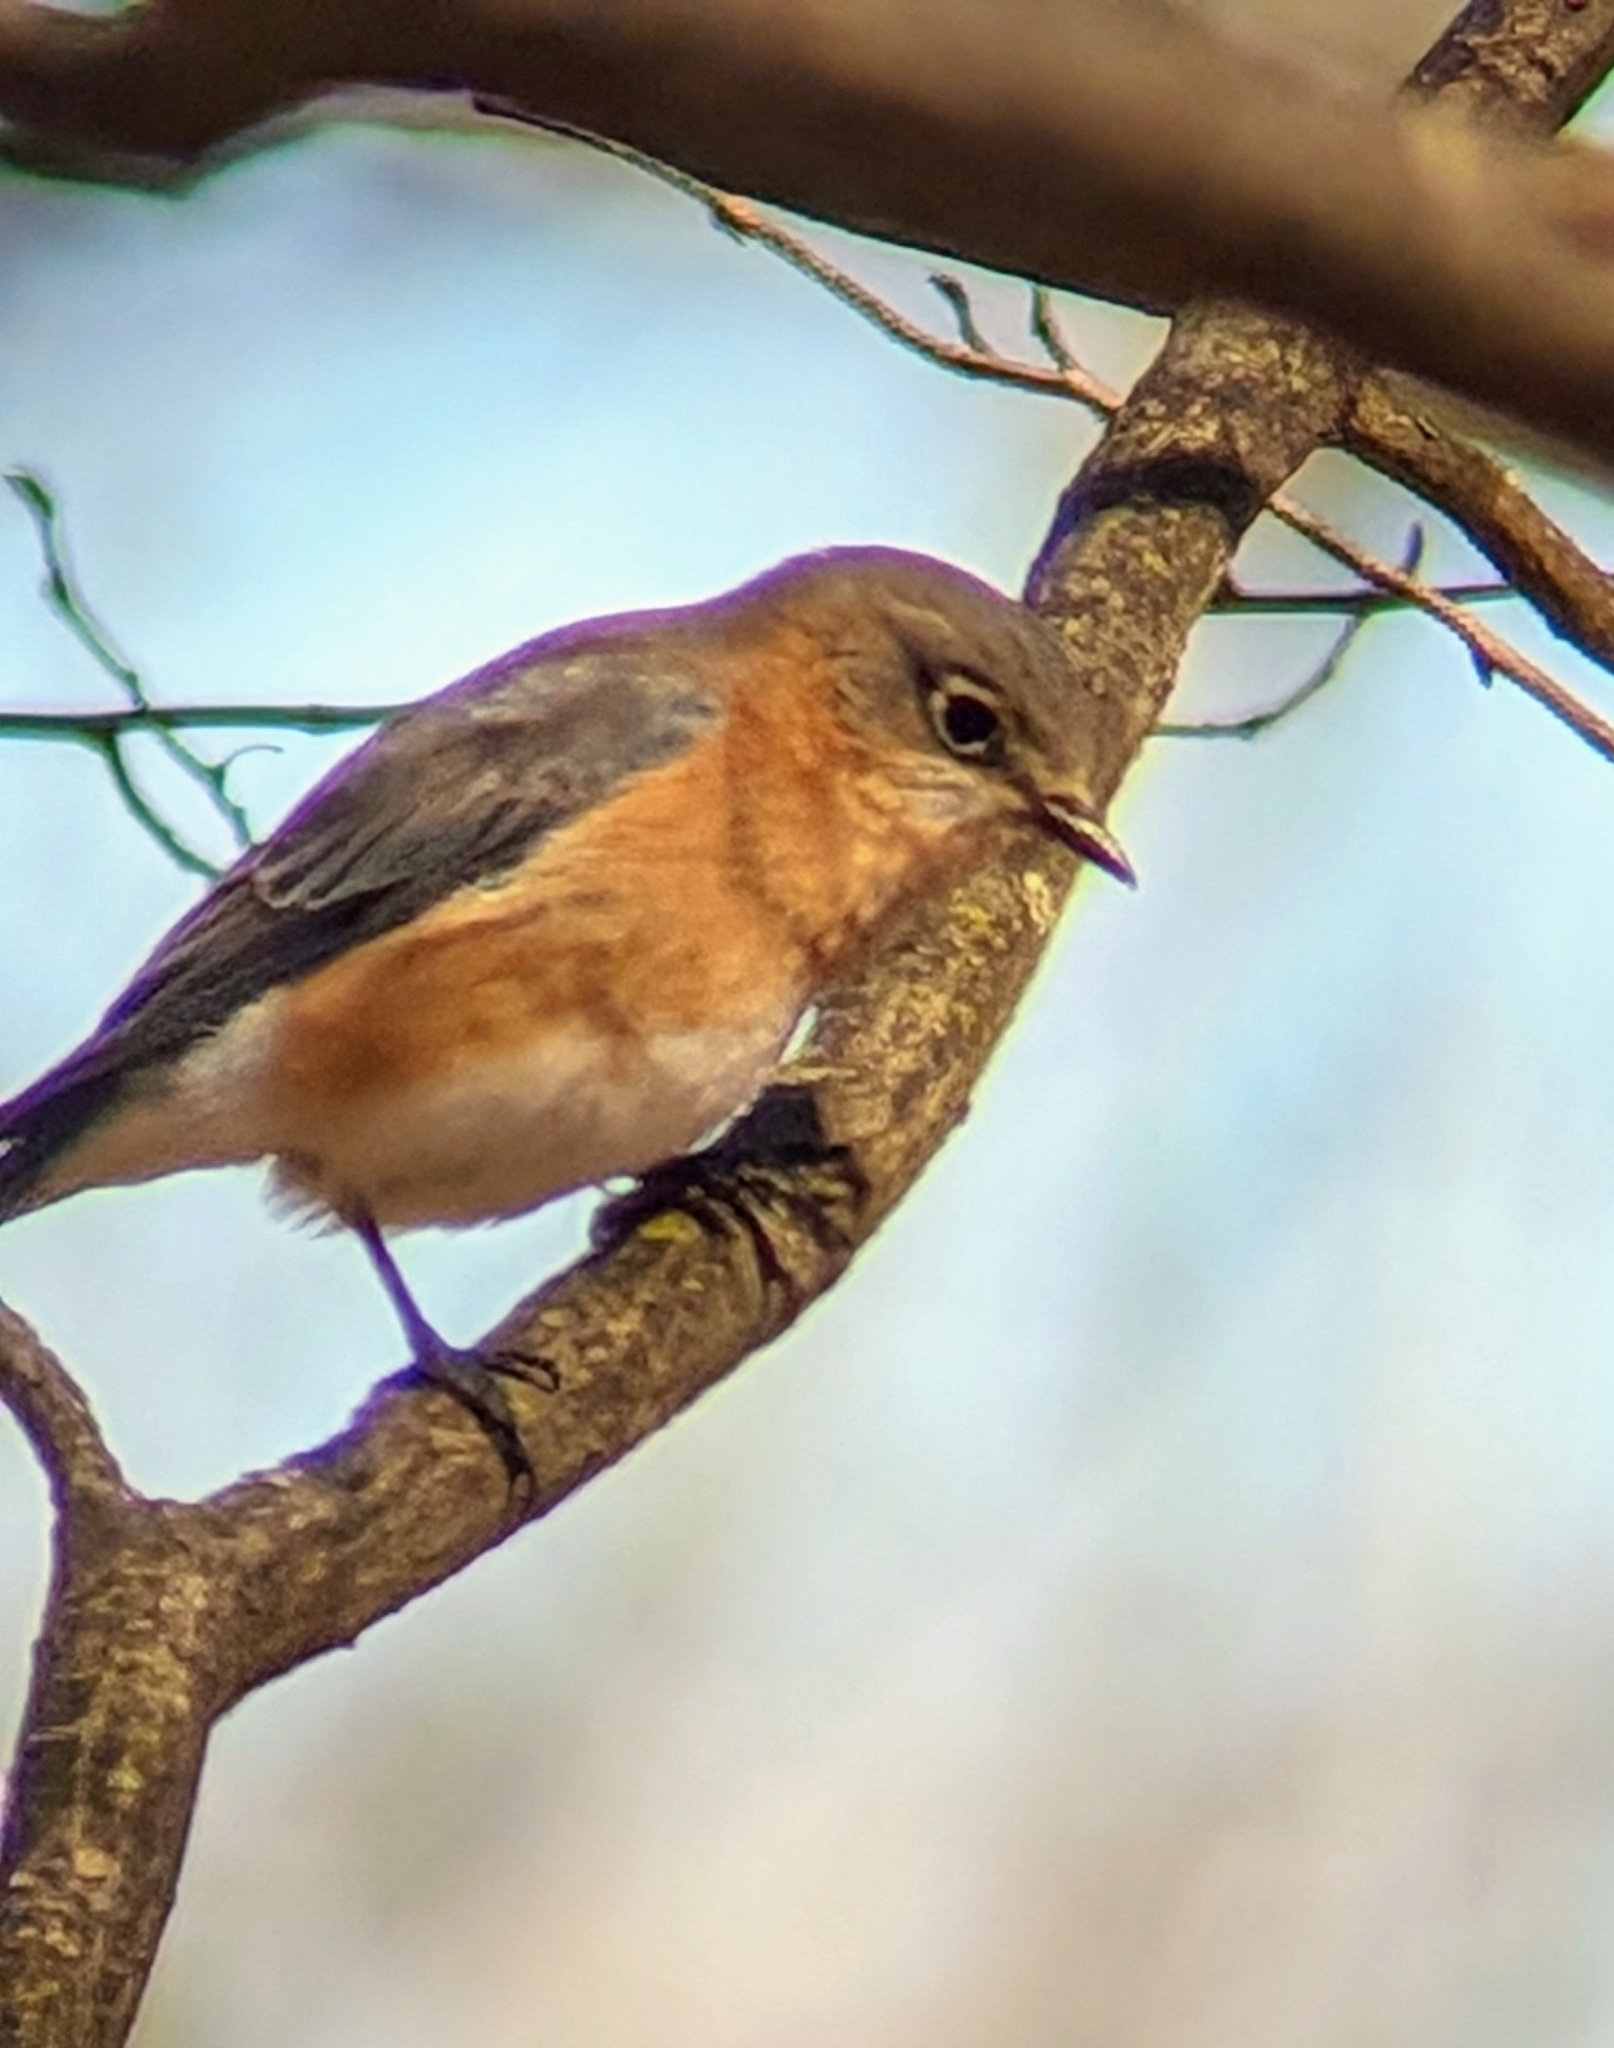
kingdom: Animalia
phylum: Chordata
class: Aves
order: Passeriformes
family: Turdidae
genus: Sialia
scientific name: Sialia sialis
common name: Eastern bluebird
